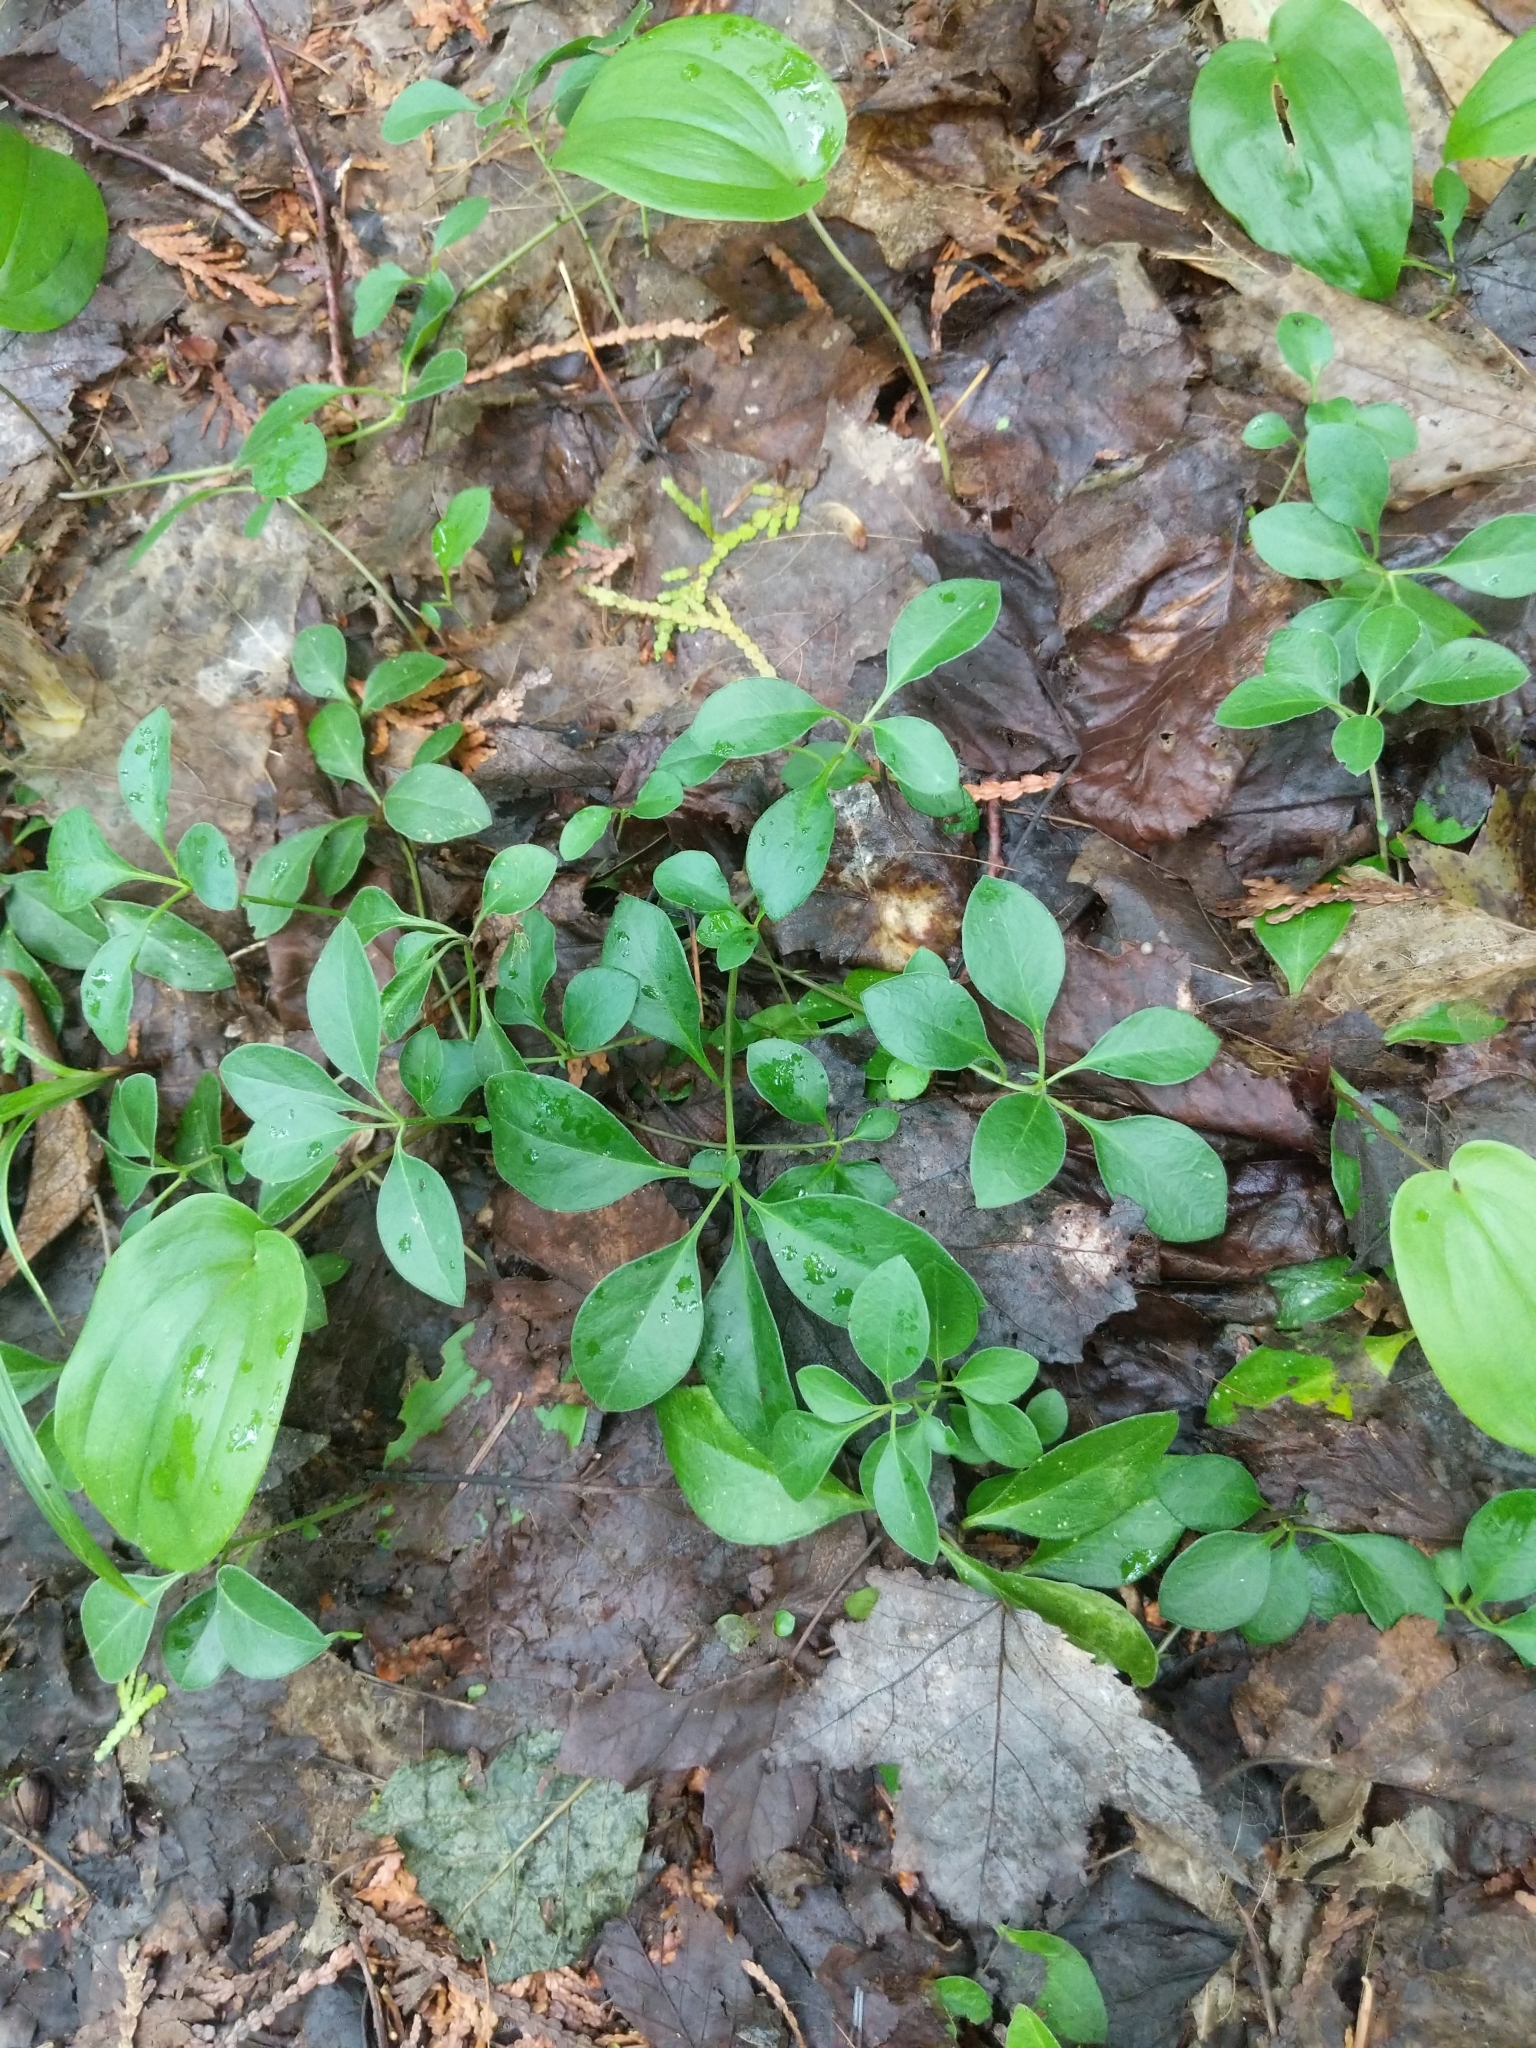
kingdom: Plantae
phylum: Tracheophyta
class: Magnoliopsida
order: Fabales
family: Polygalaceae
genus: Polygaloides
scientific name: Polygaloides paucifolia
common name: Bird-on-the-wing
